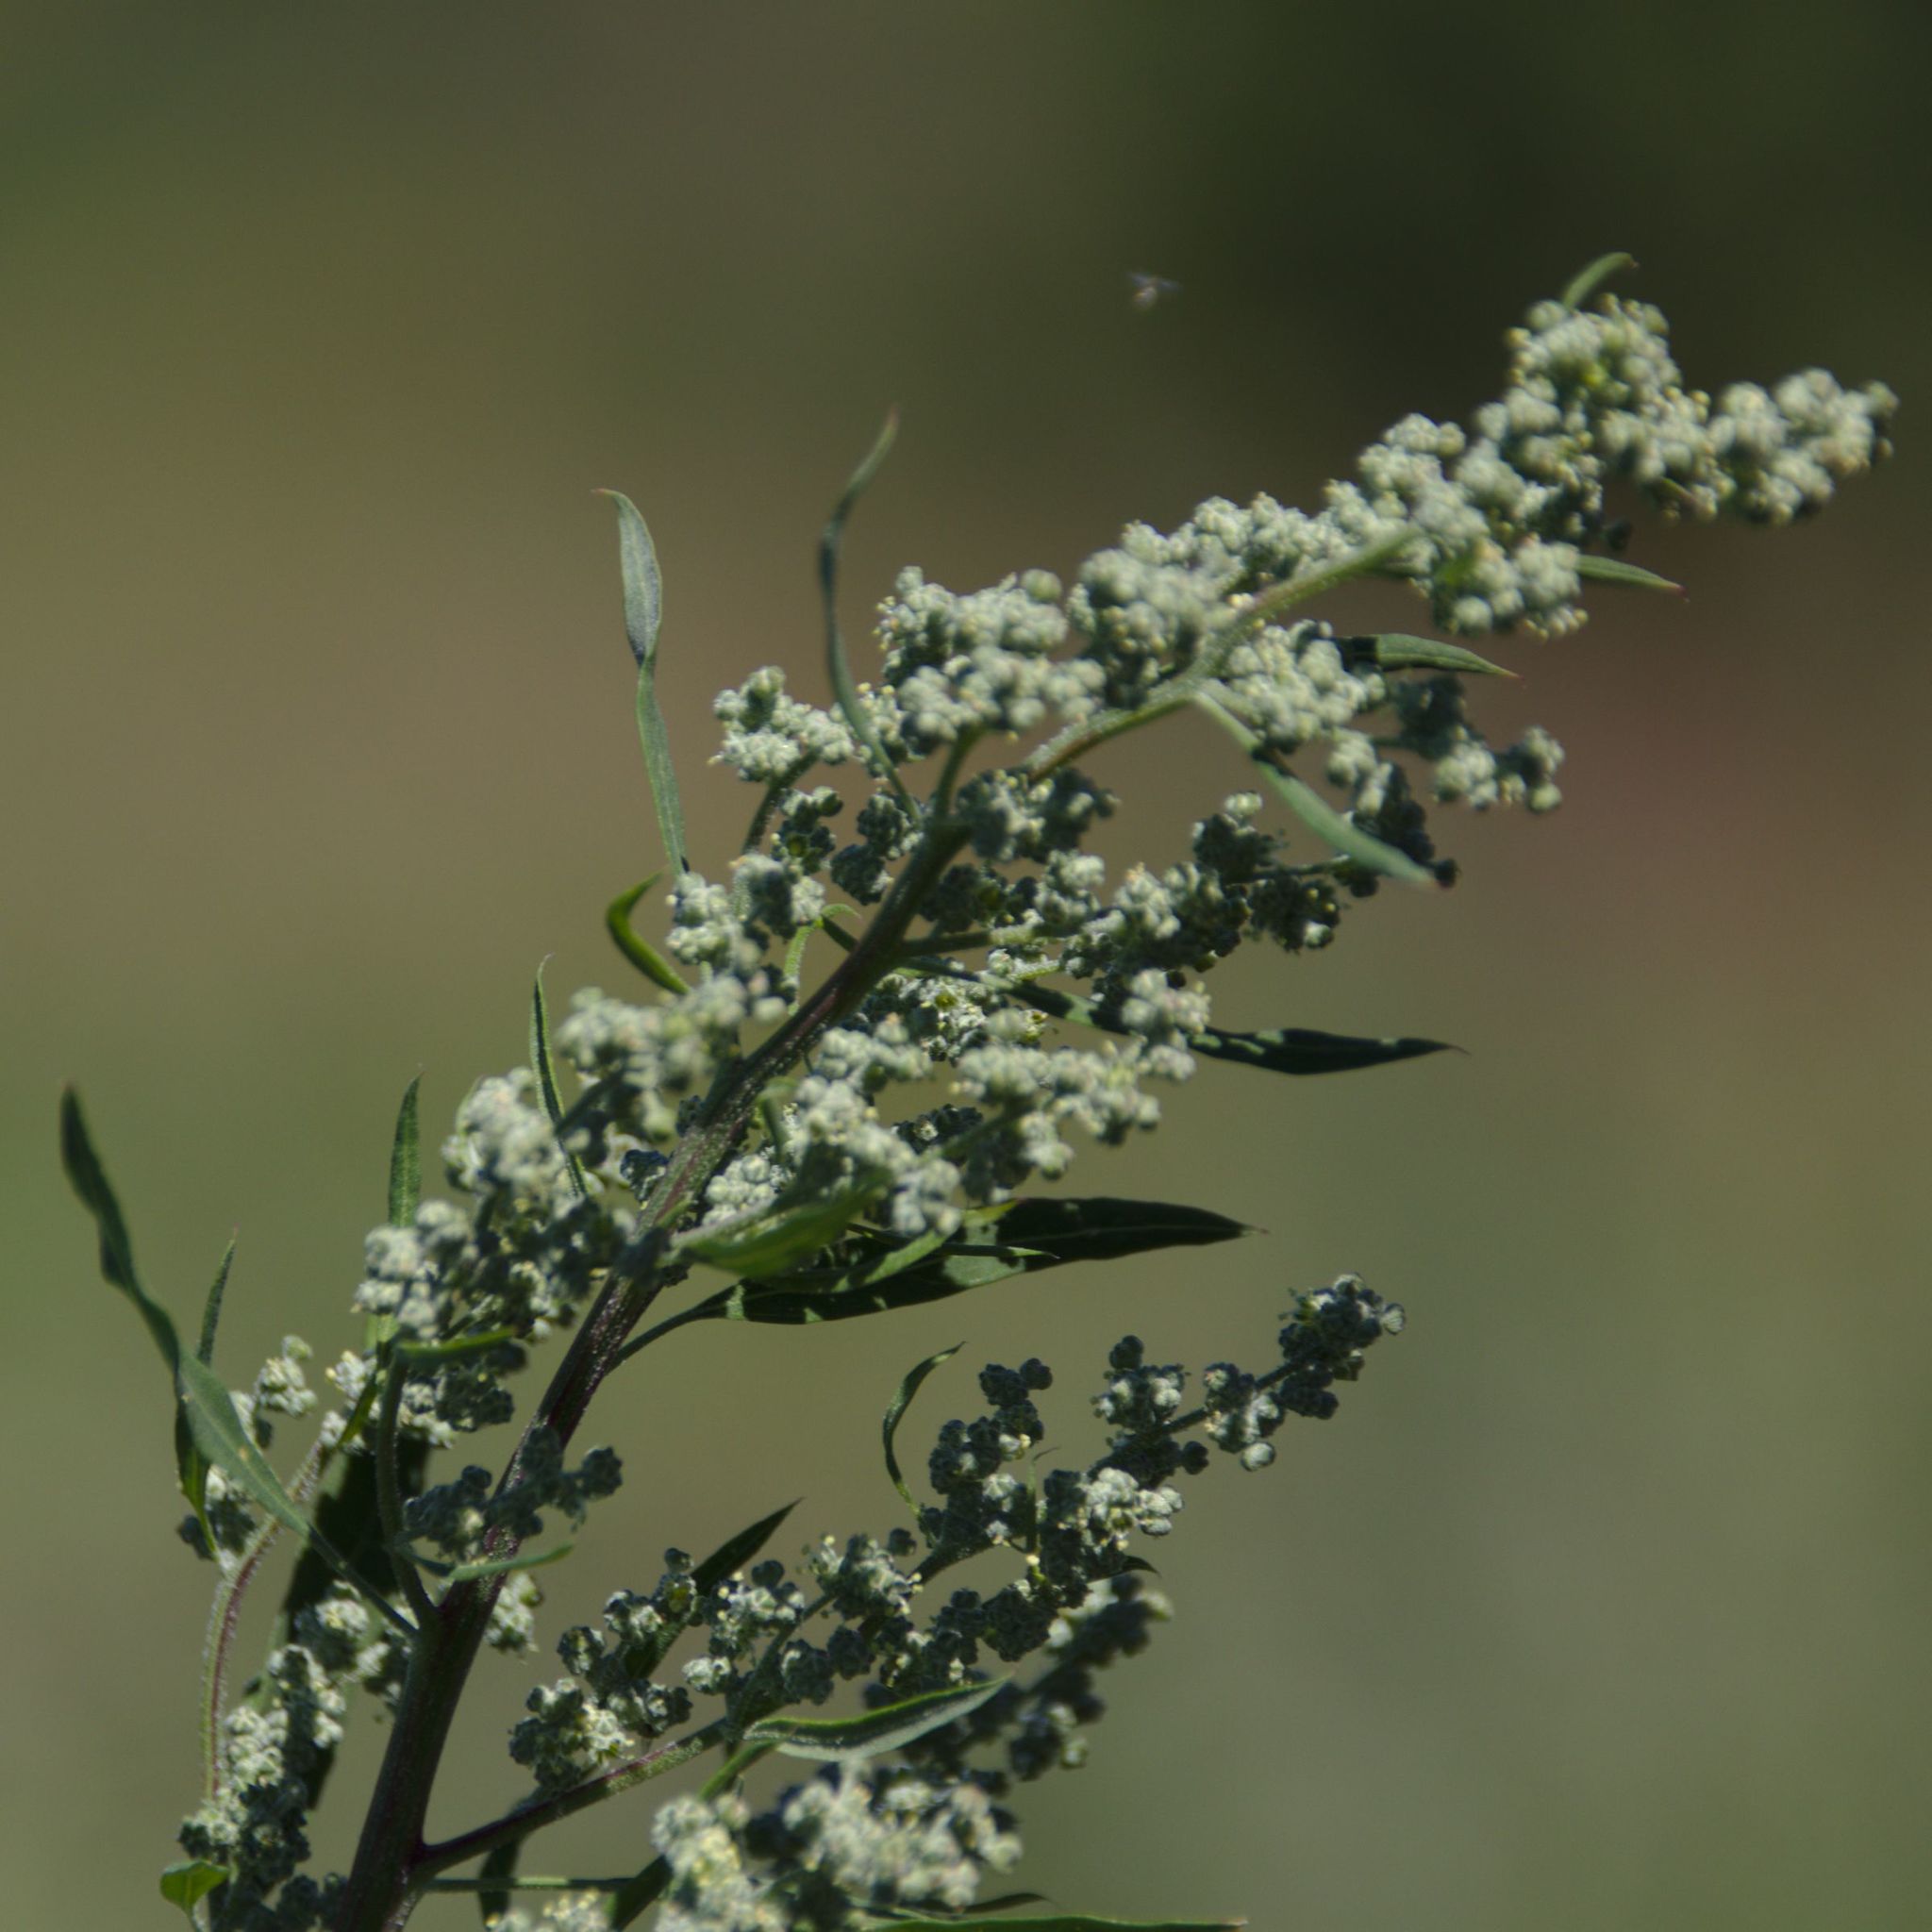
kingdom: Plantae
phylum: Tracheophyta
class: Magnoliopsida
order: Caryophyllales
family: Amaranthaceae
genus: Chenopodium
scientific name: Chenopodium album
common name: Fat-hen
